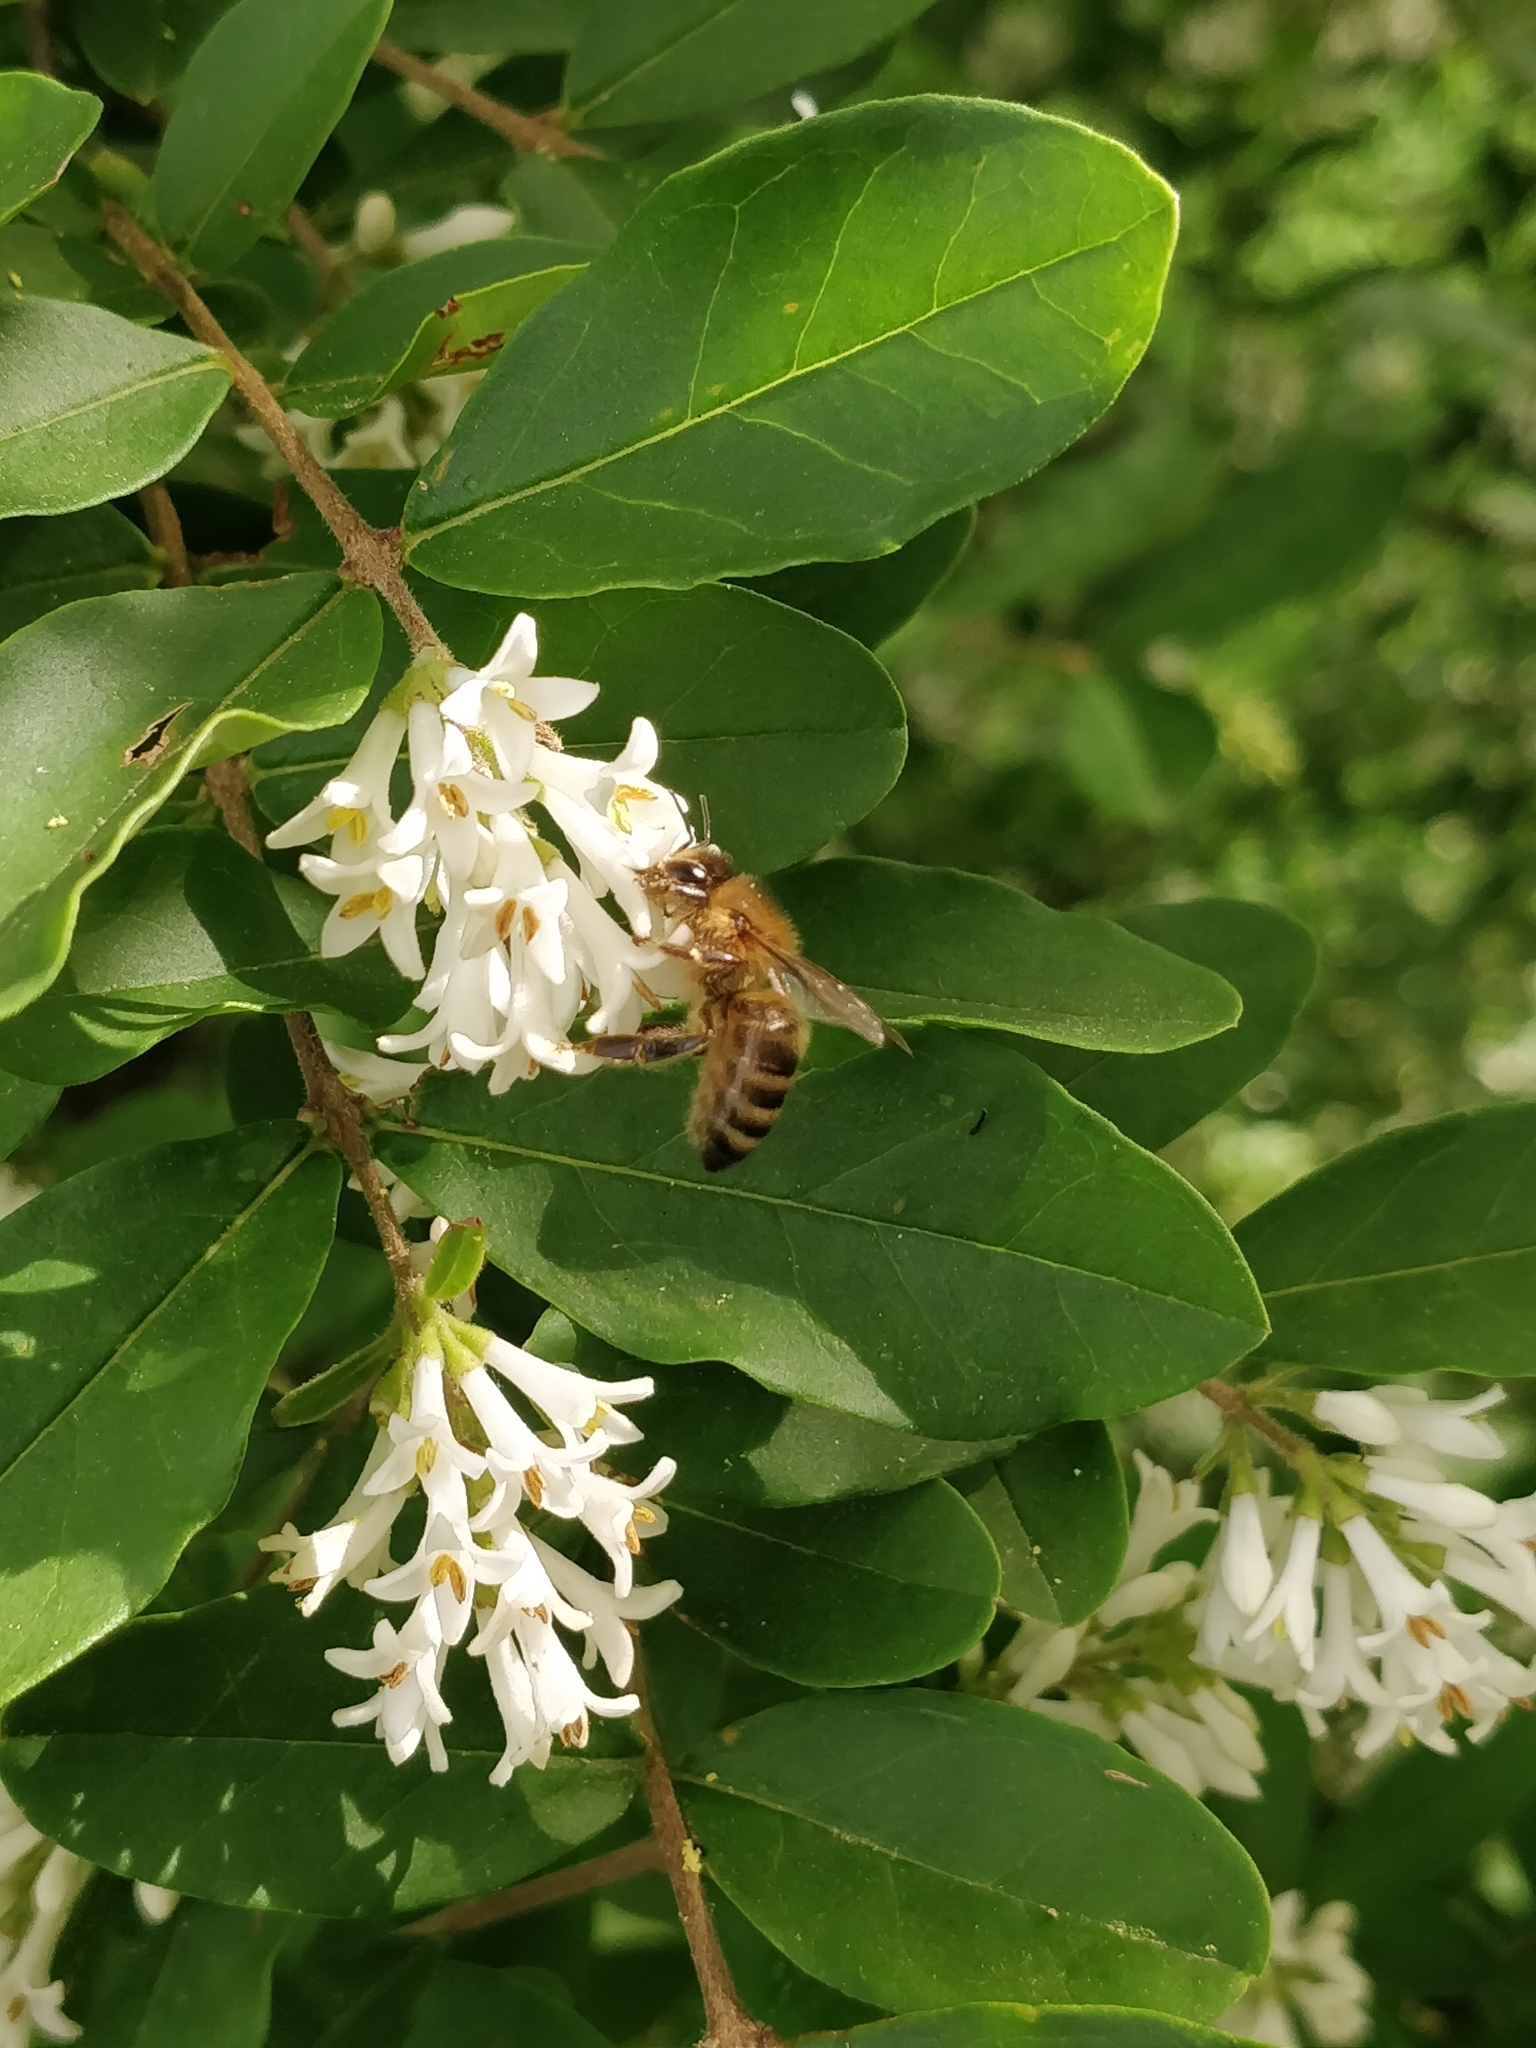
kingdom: Animalia
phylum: Arthropoda
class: Insecta
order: Hymenoptera
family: Apidae
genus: Apis
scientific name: Apis mellifera
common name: Honey bee
